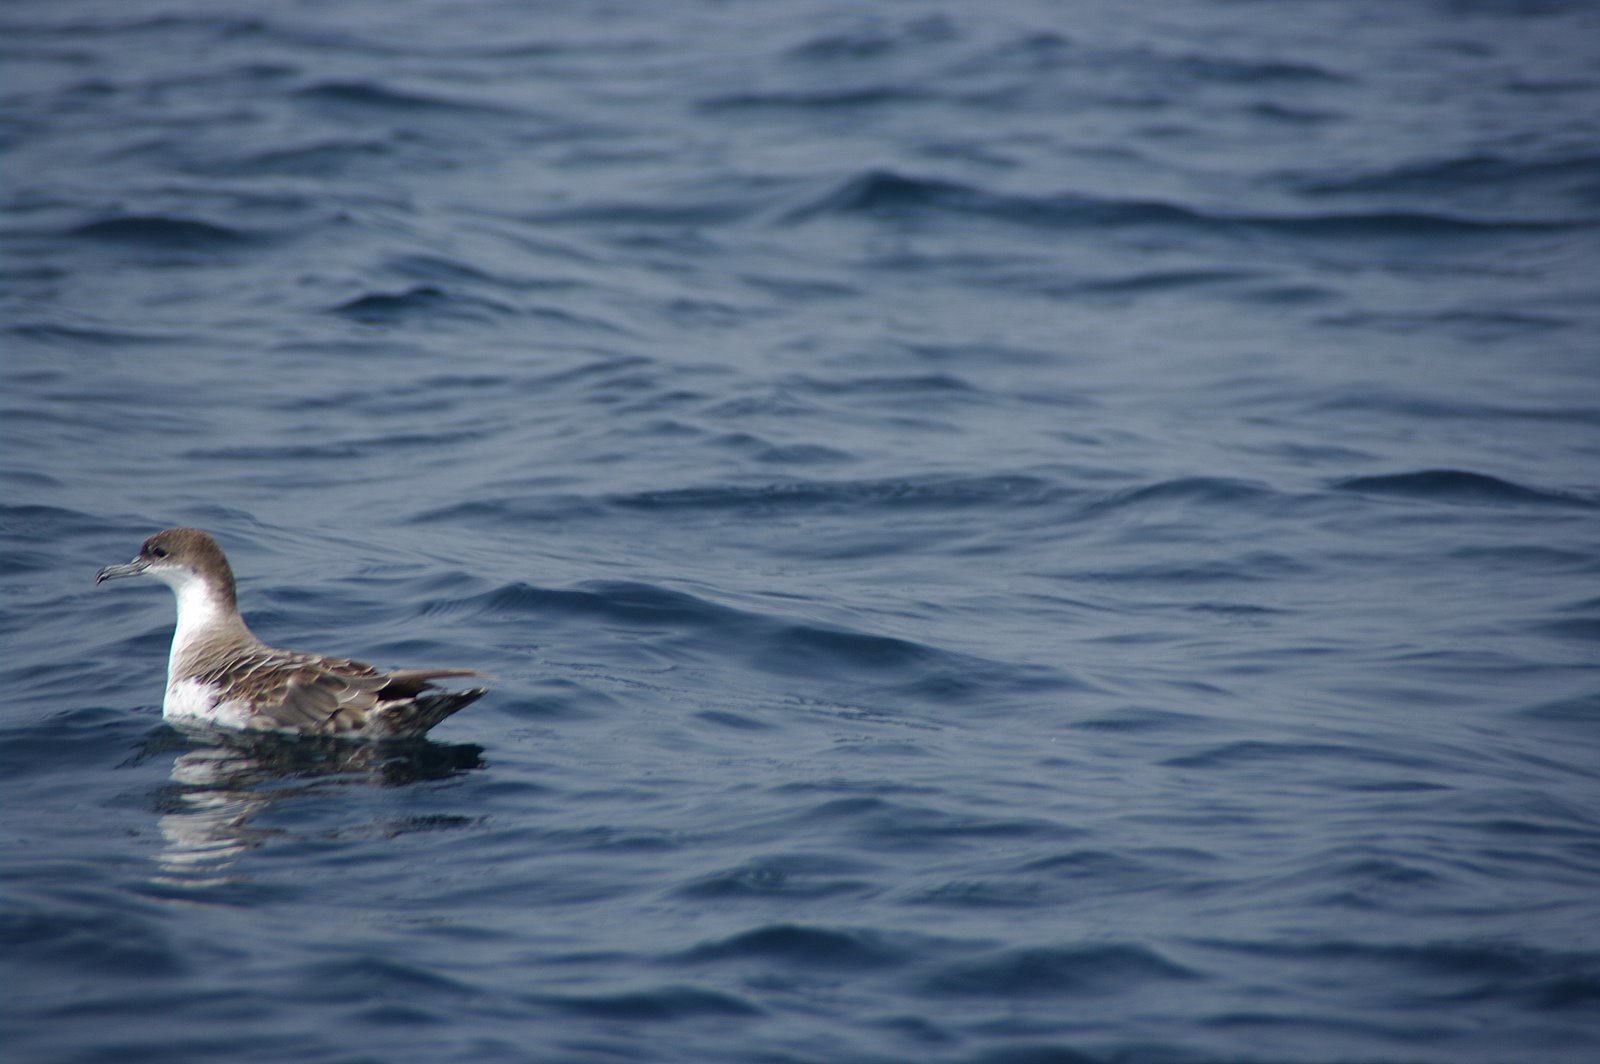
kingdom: Animalia
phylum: Chordata
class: Aves
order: Procellariiformes
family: Procellariidae
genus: Puffinus
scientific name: Puffinus gravis
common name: Great shearwater
